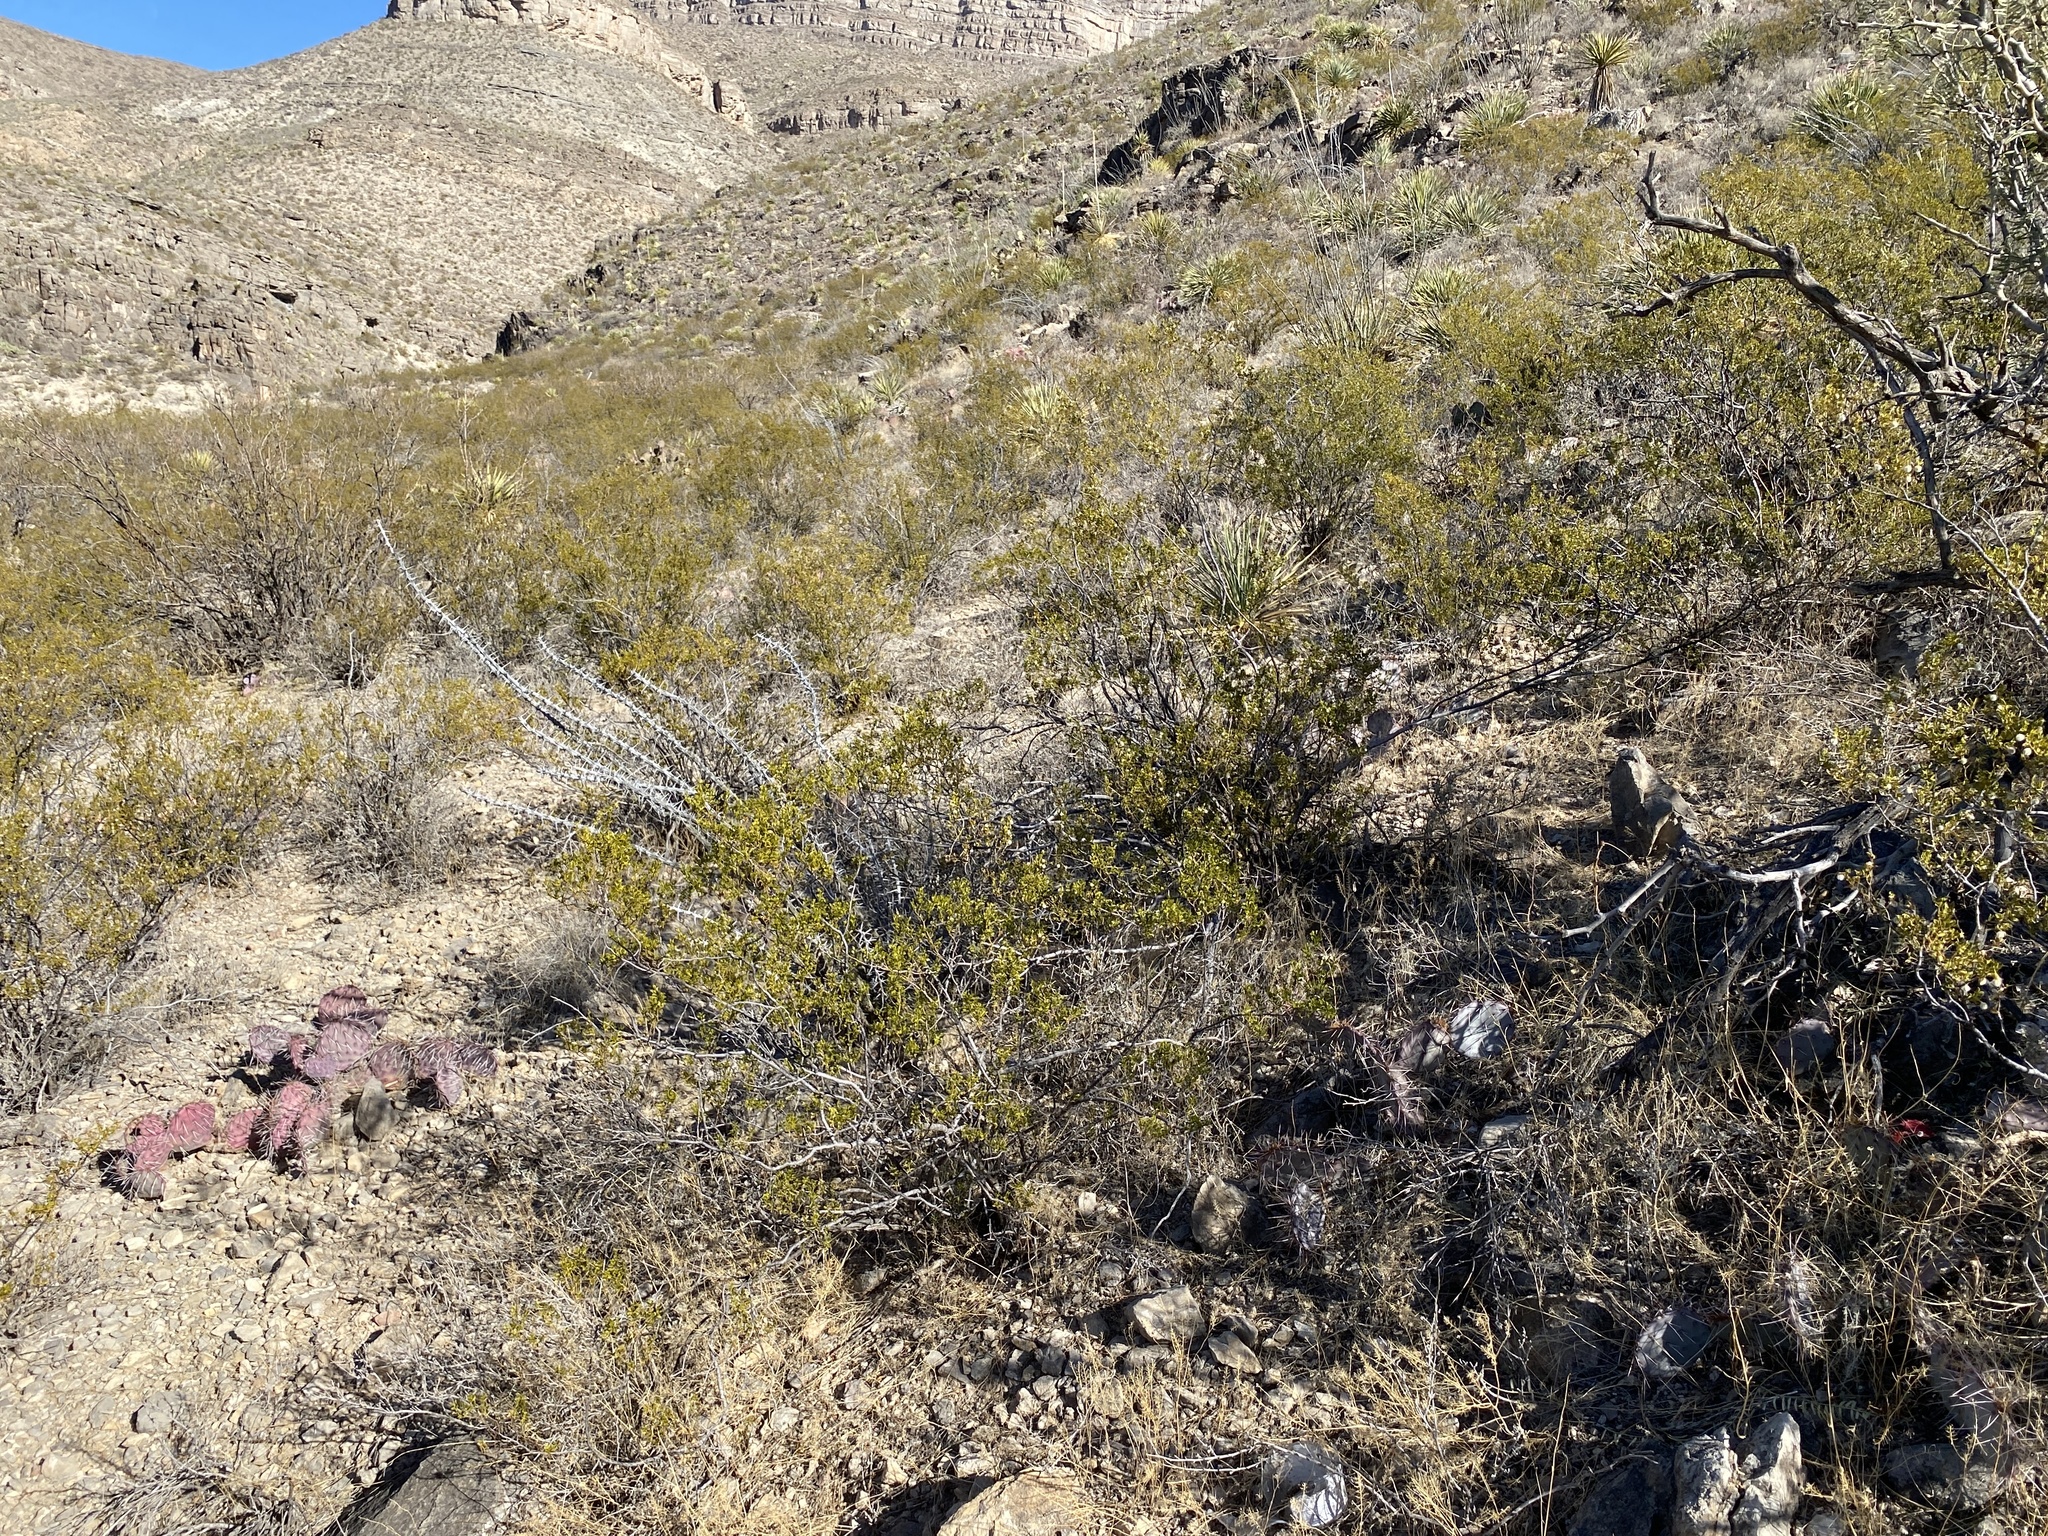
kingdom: Plantae
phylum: Tracheophyta
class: Magnoliopsida
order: Zygophyllales
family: Zygophyllaceae
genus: Larrea
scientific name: Larrea tridentata
